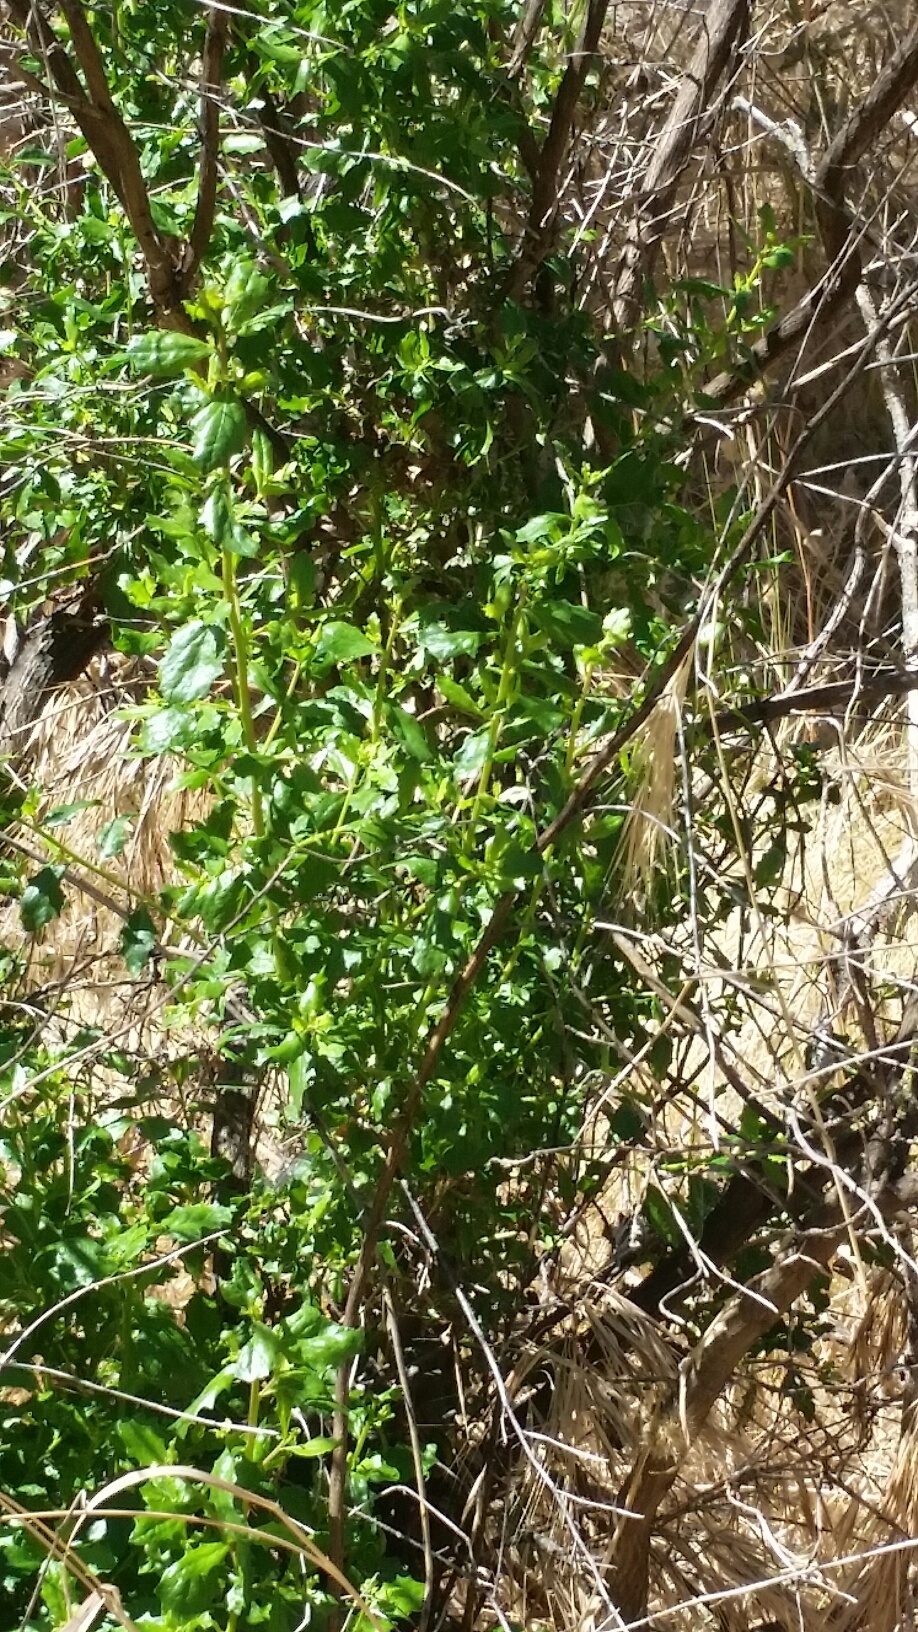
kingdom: Plantae
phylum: Tracheophyta
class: Magnoliopsida
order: Asterales
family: Asteraceae
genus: Baccharis
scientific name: Baccharis pilularis
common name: Coyotebrush
